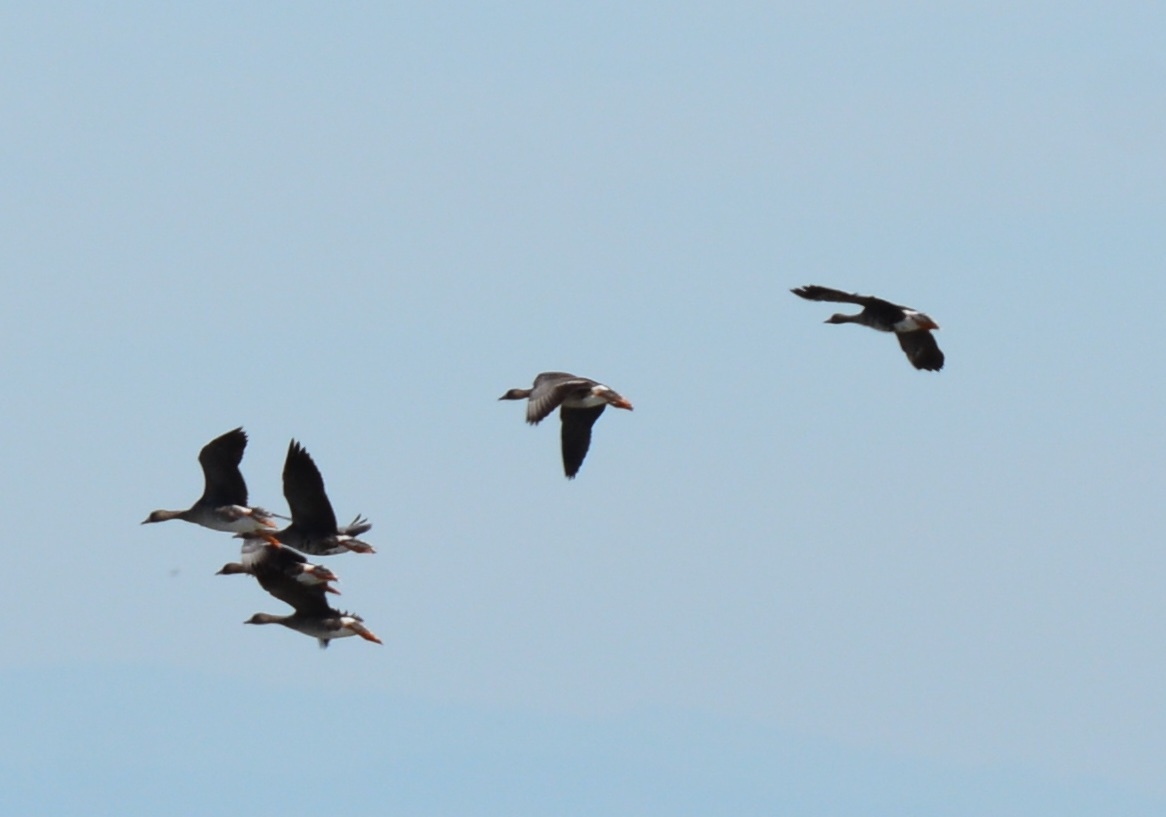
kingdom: Animalia
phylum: Chordata
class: Aves
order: Anseriformes
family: Anatidae
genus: Anser
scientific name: Anser albifrons
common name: Greater white-fronted goose
